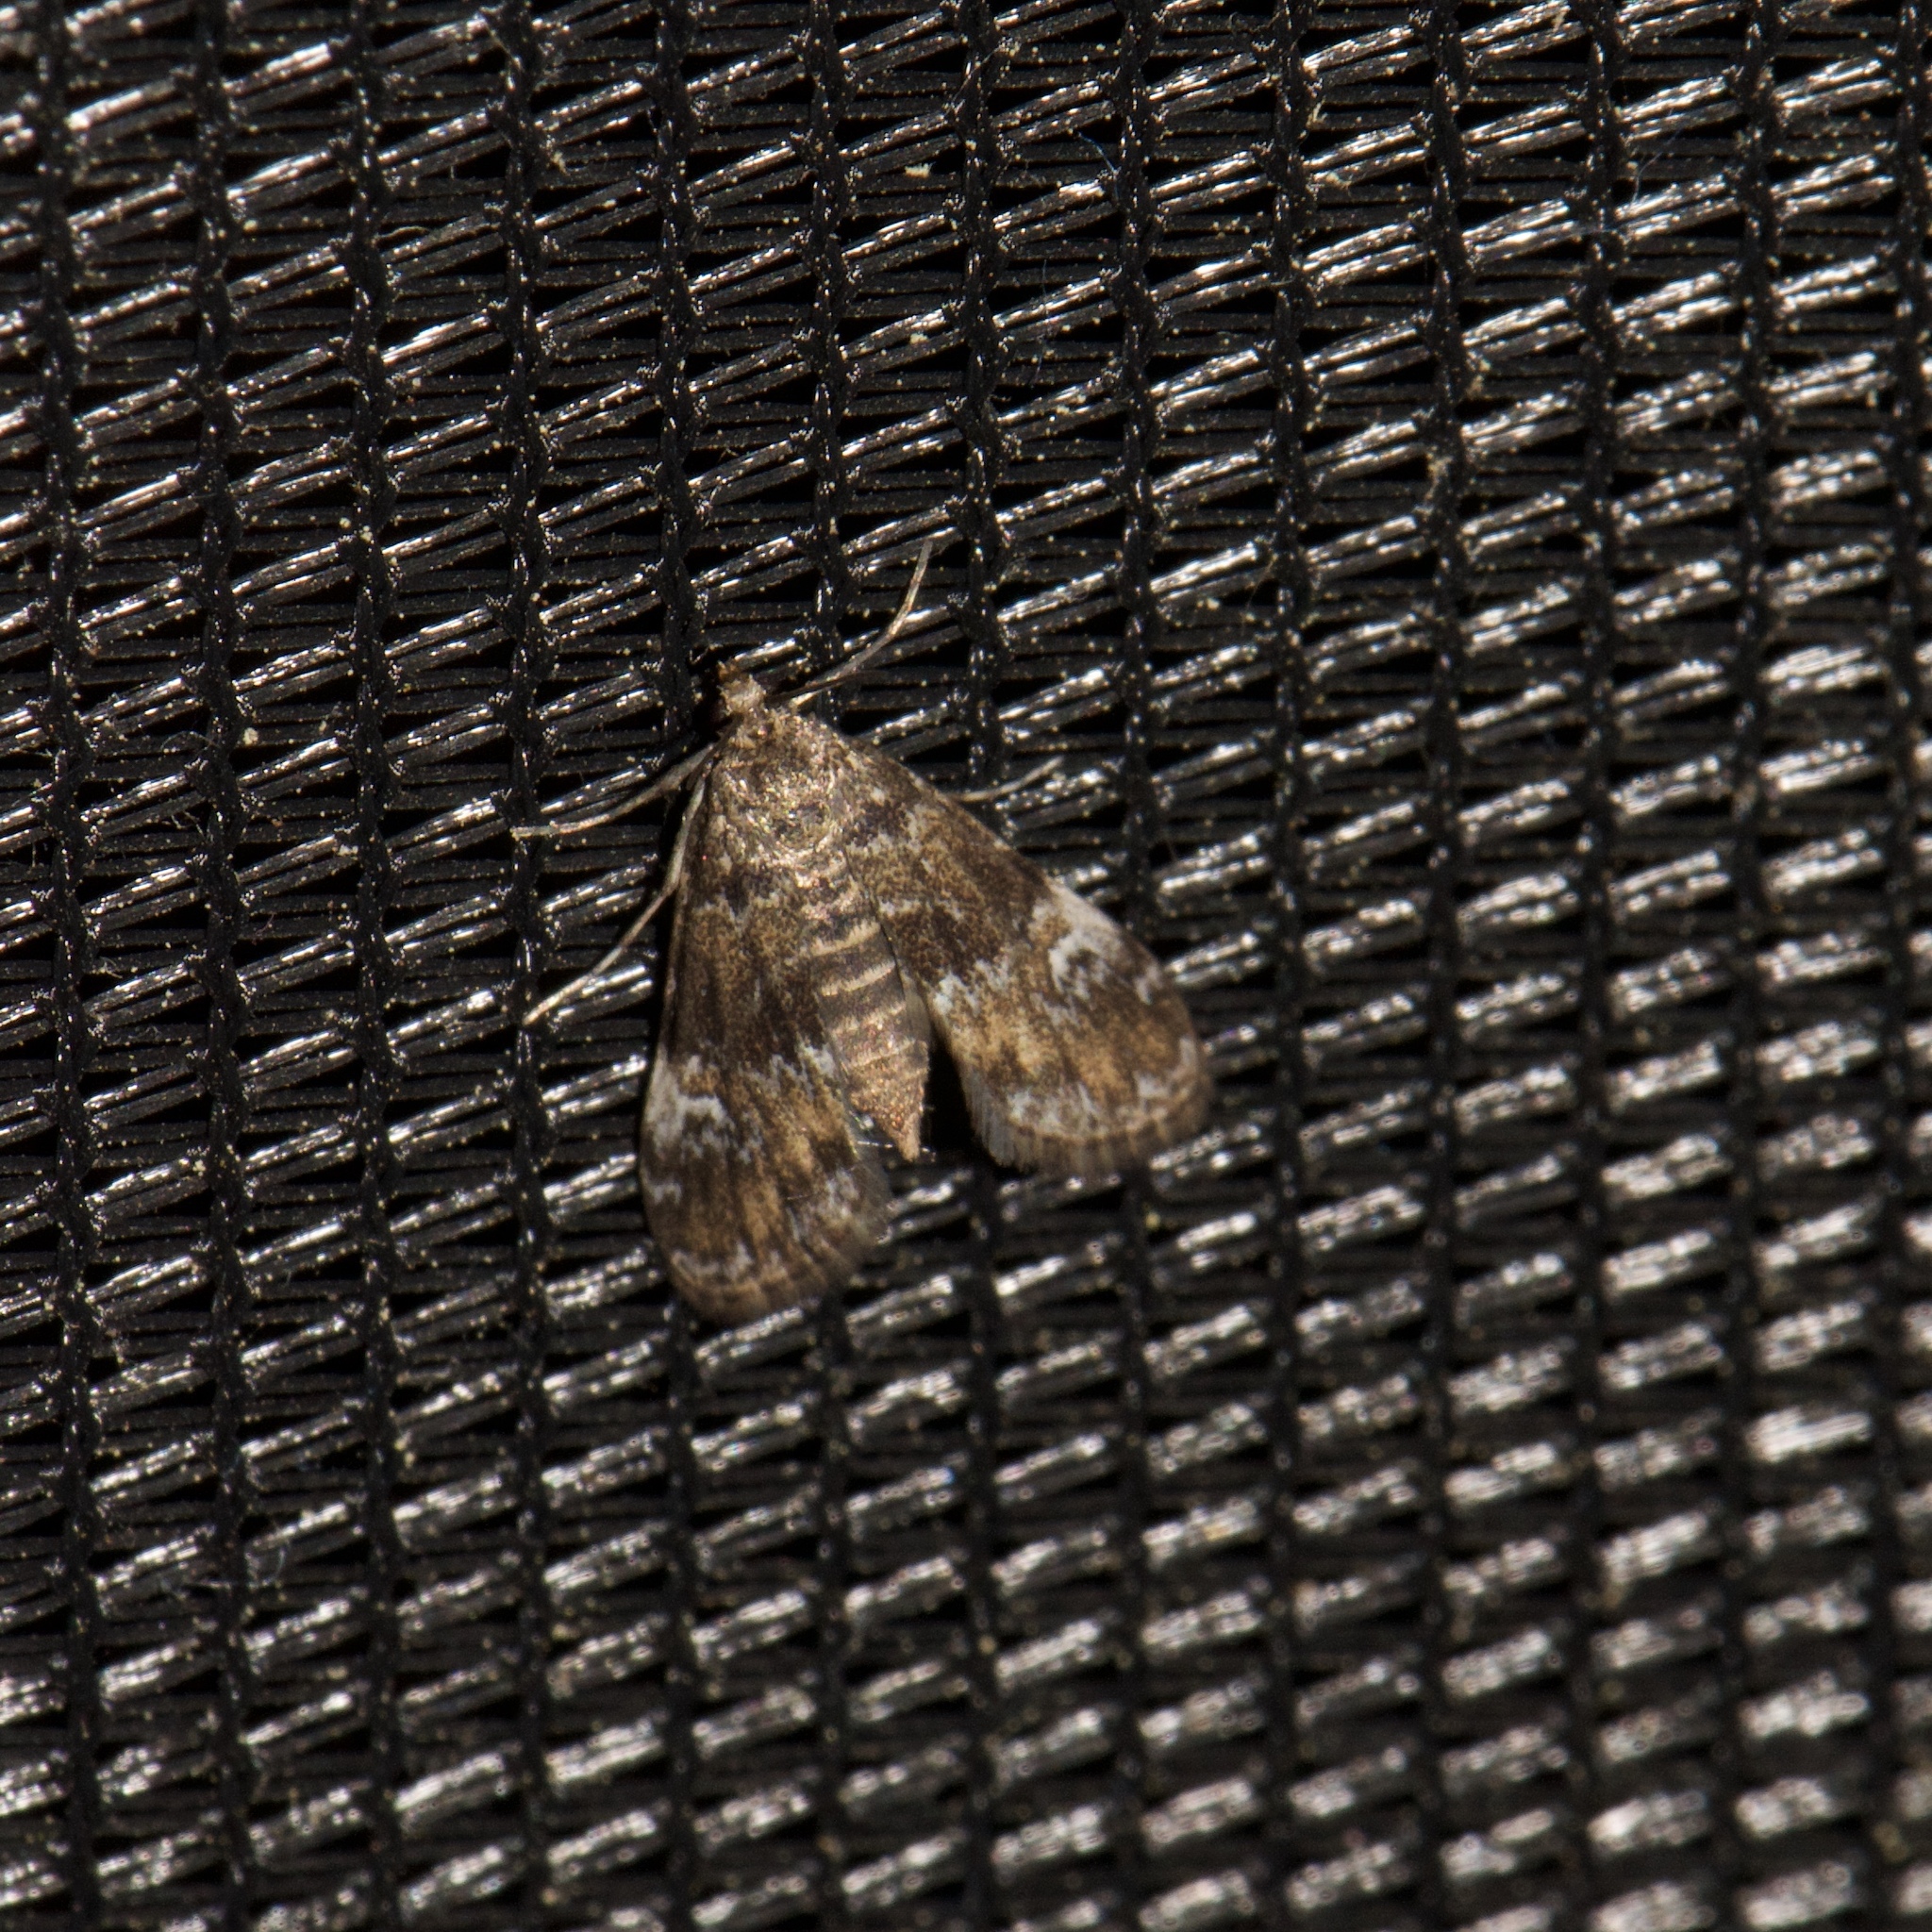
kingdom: Animalia
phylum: Arthropoda
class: Insecta
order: Lepidoptera
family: Crambidae
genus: Elophila
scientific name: Elophila obliteralis
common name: Waterlily leafcutter moth
